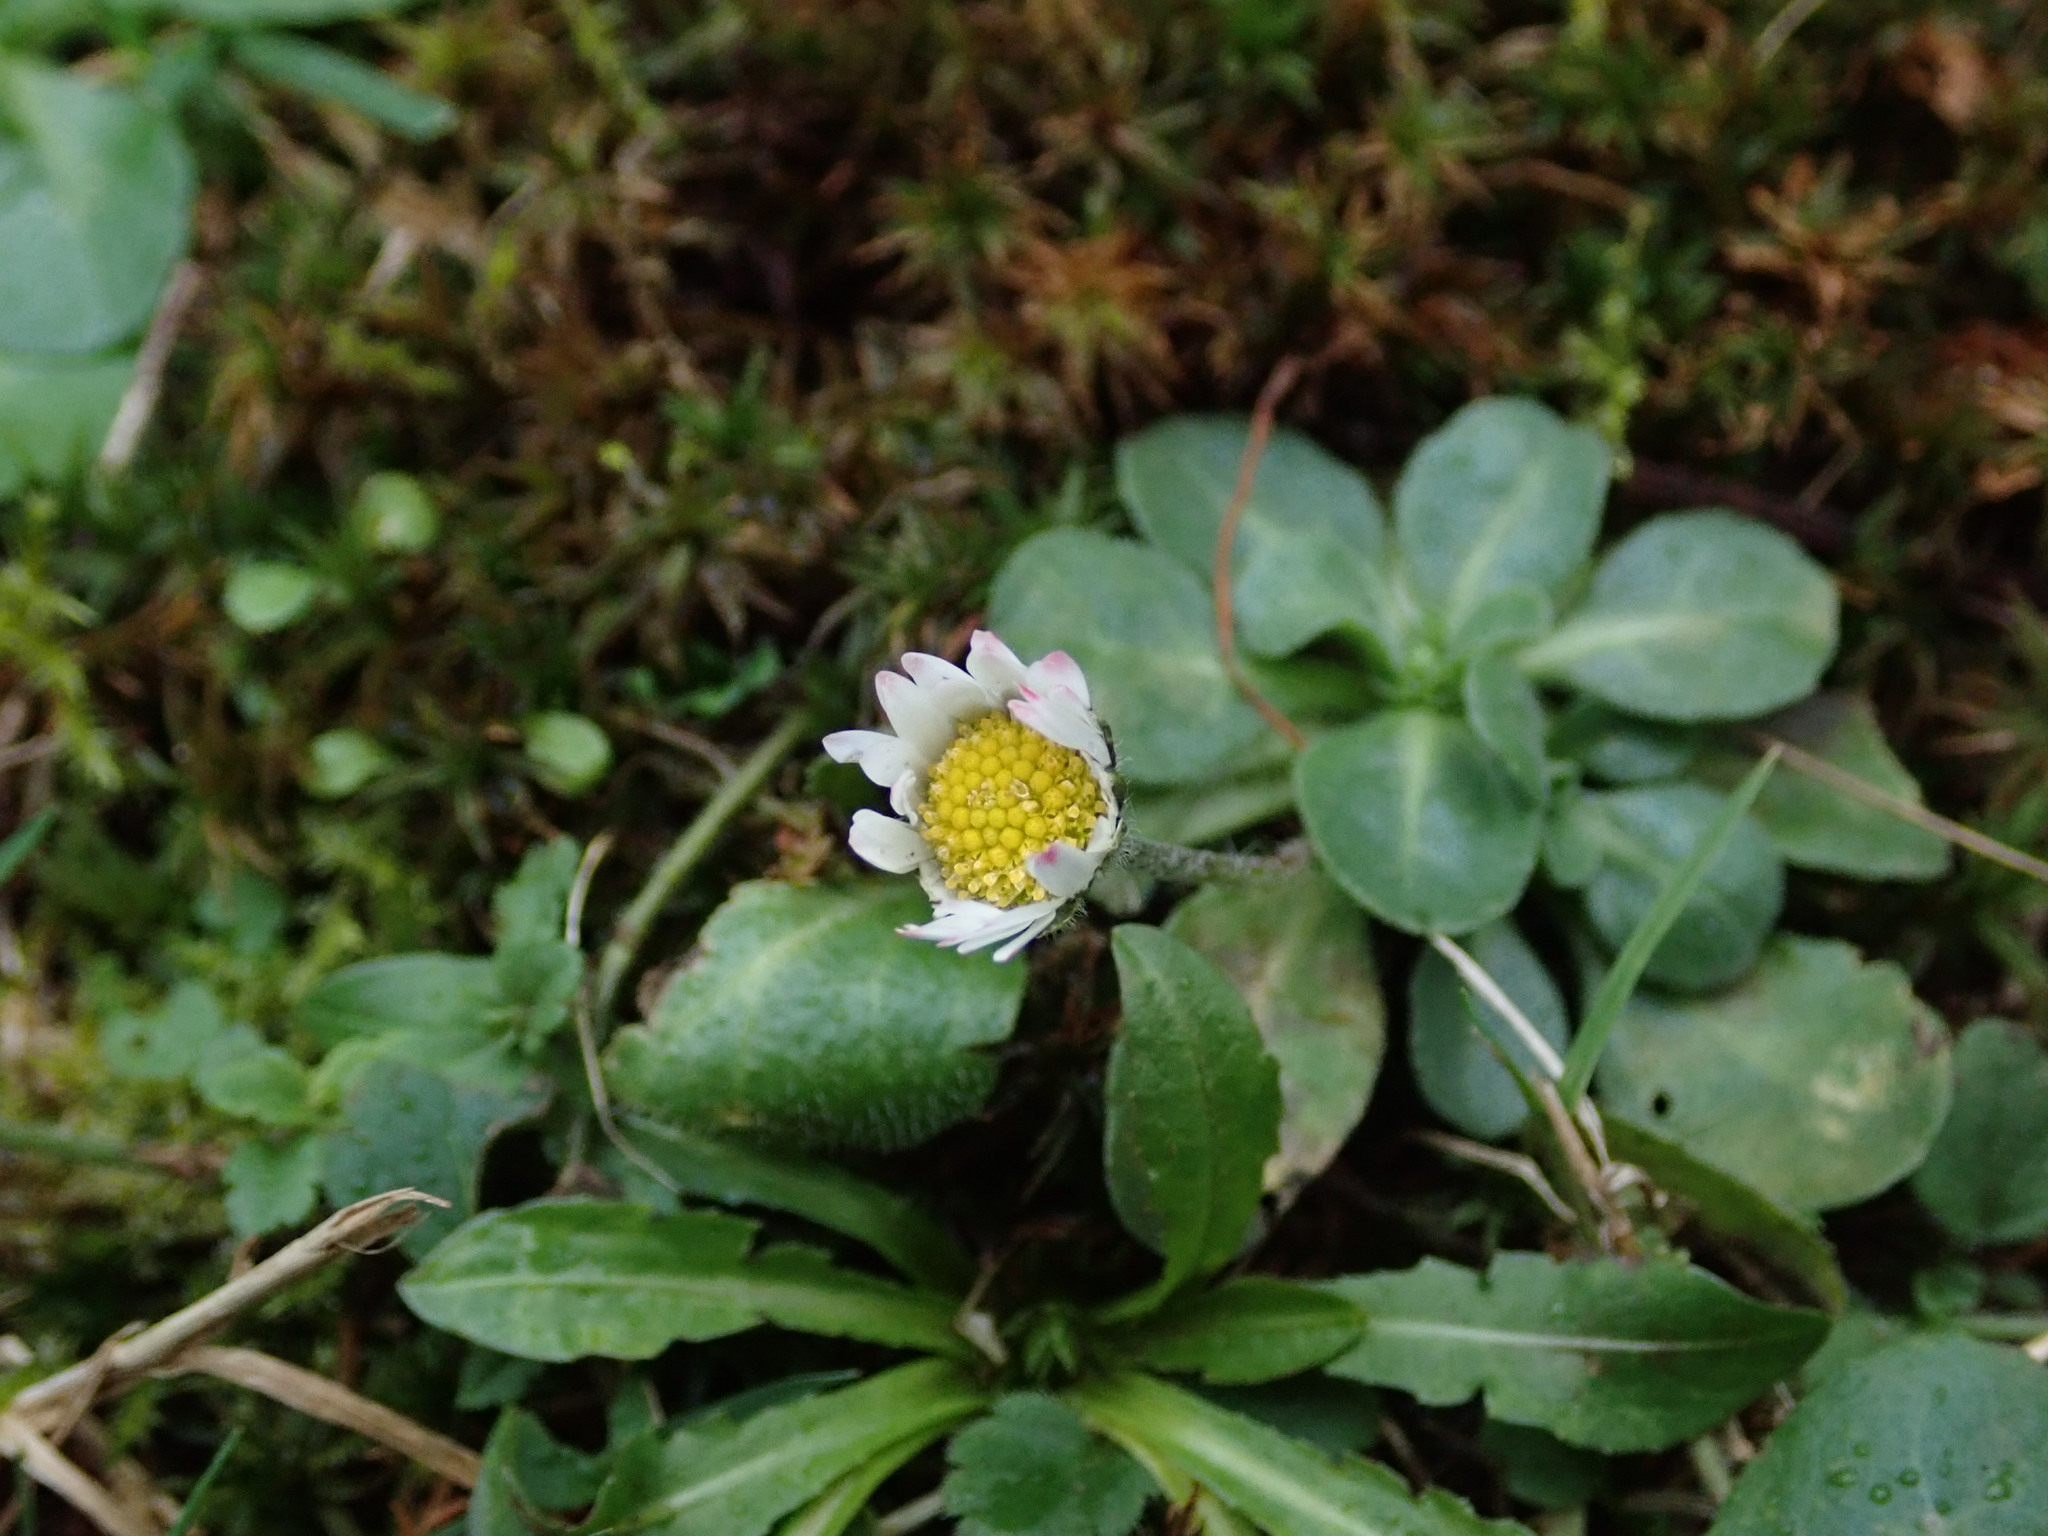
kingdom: Plantae
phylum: Tracheophyta
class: Magnoliopsida
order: Asterales
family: Asteraceae
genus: Bellis
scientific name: Bellis perennis
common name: Lawndaisy
